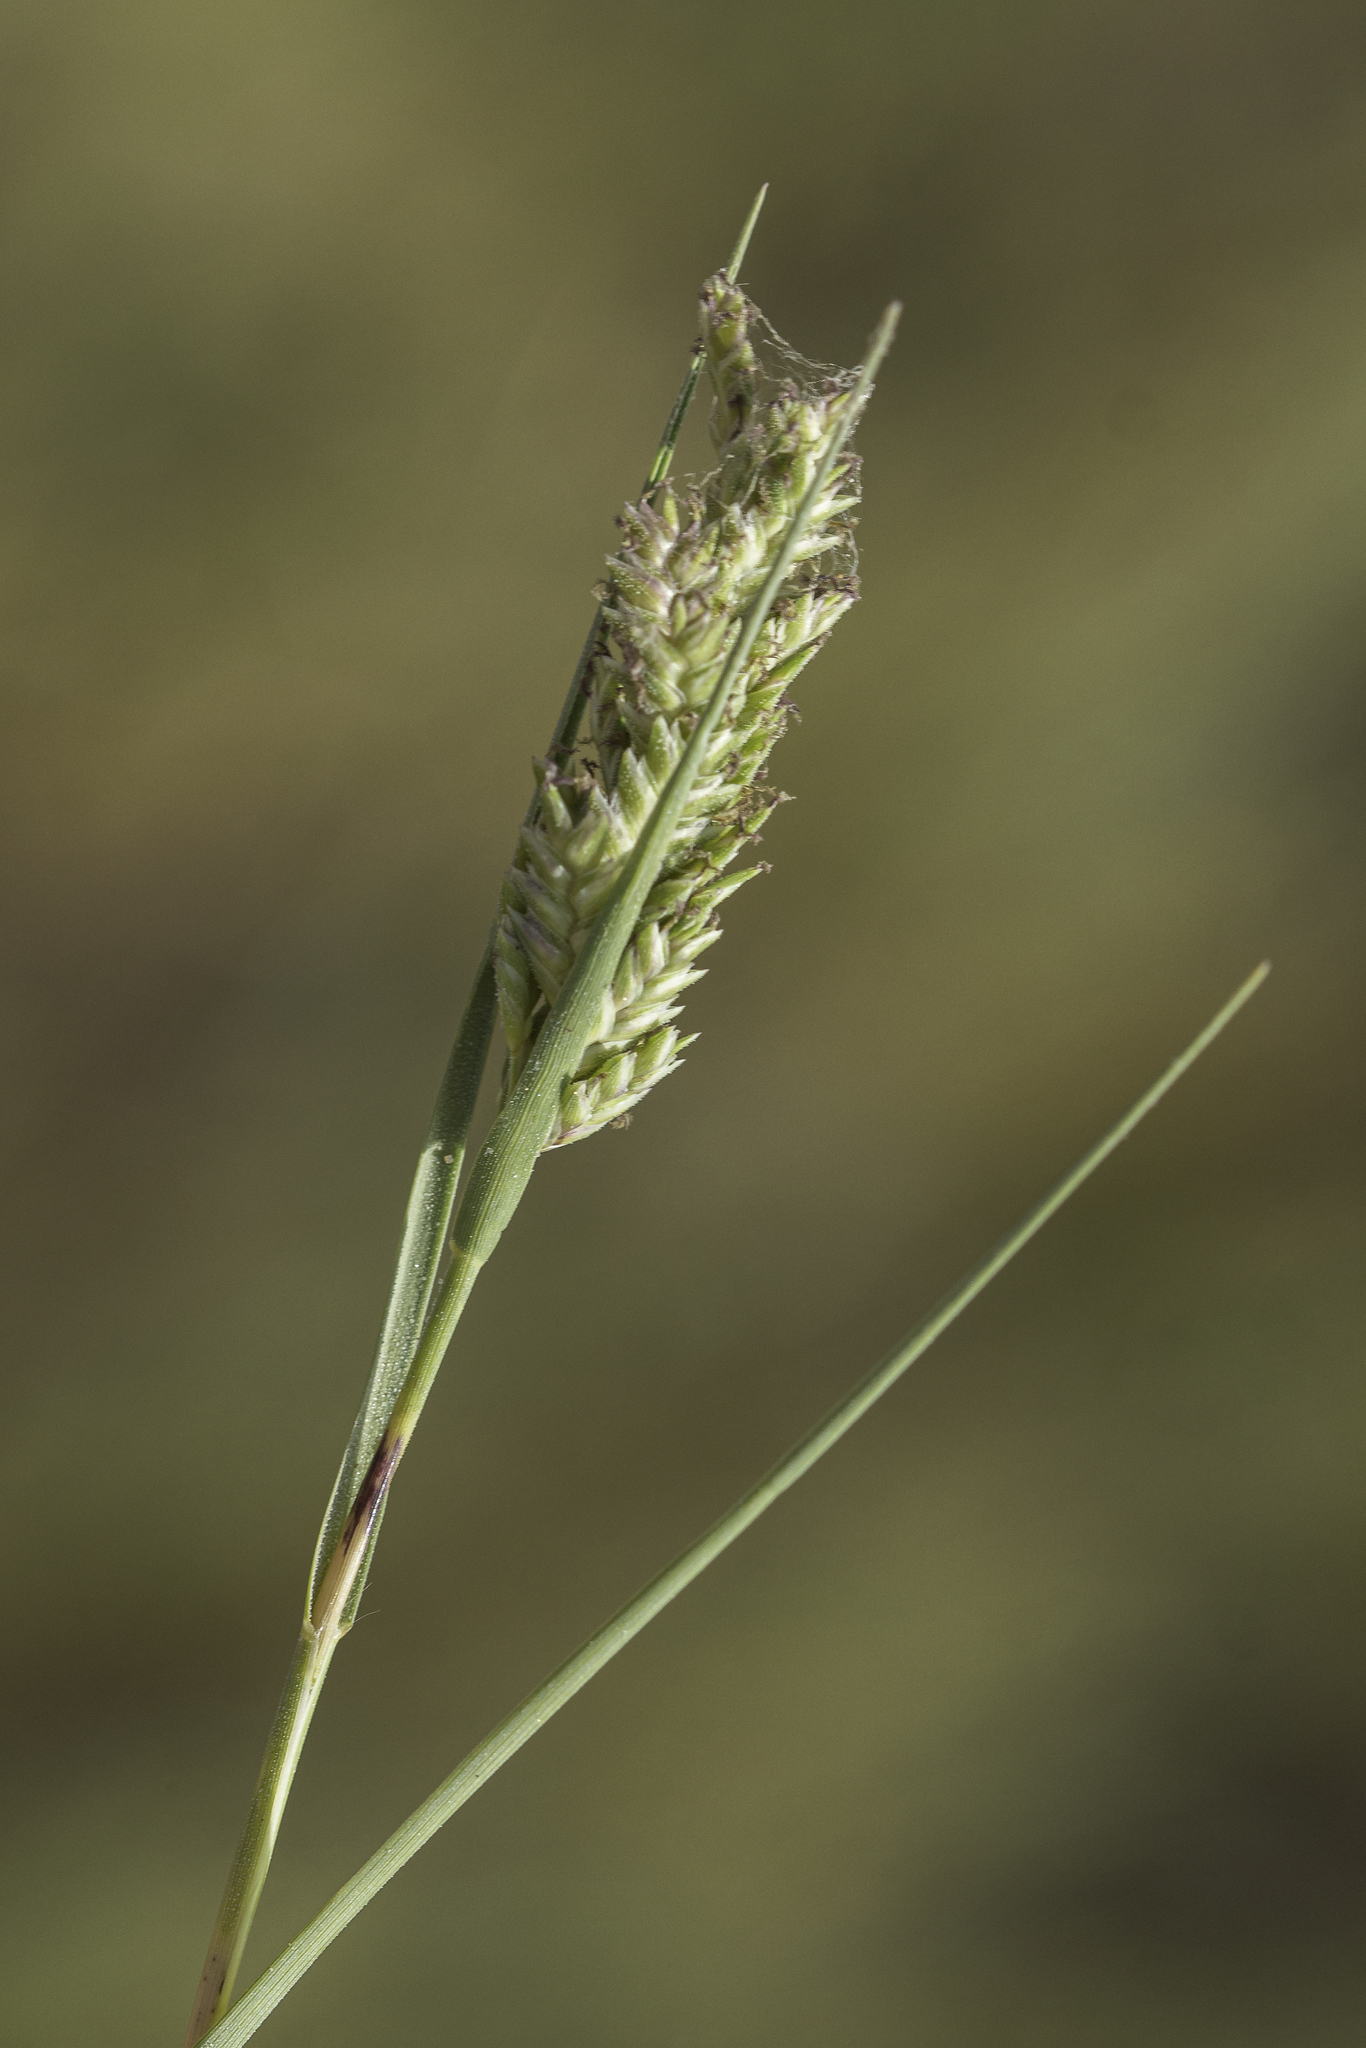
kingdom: Plantae
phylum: Tracheophyta
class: Liliopsida
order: Poales
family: Poaceae
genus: Distichlis
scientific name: Distichlis spicata
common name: Saltgrass
